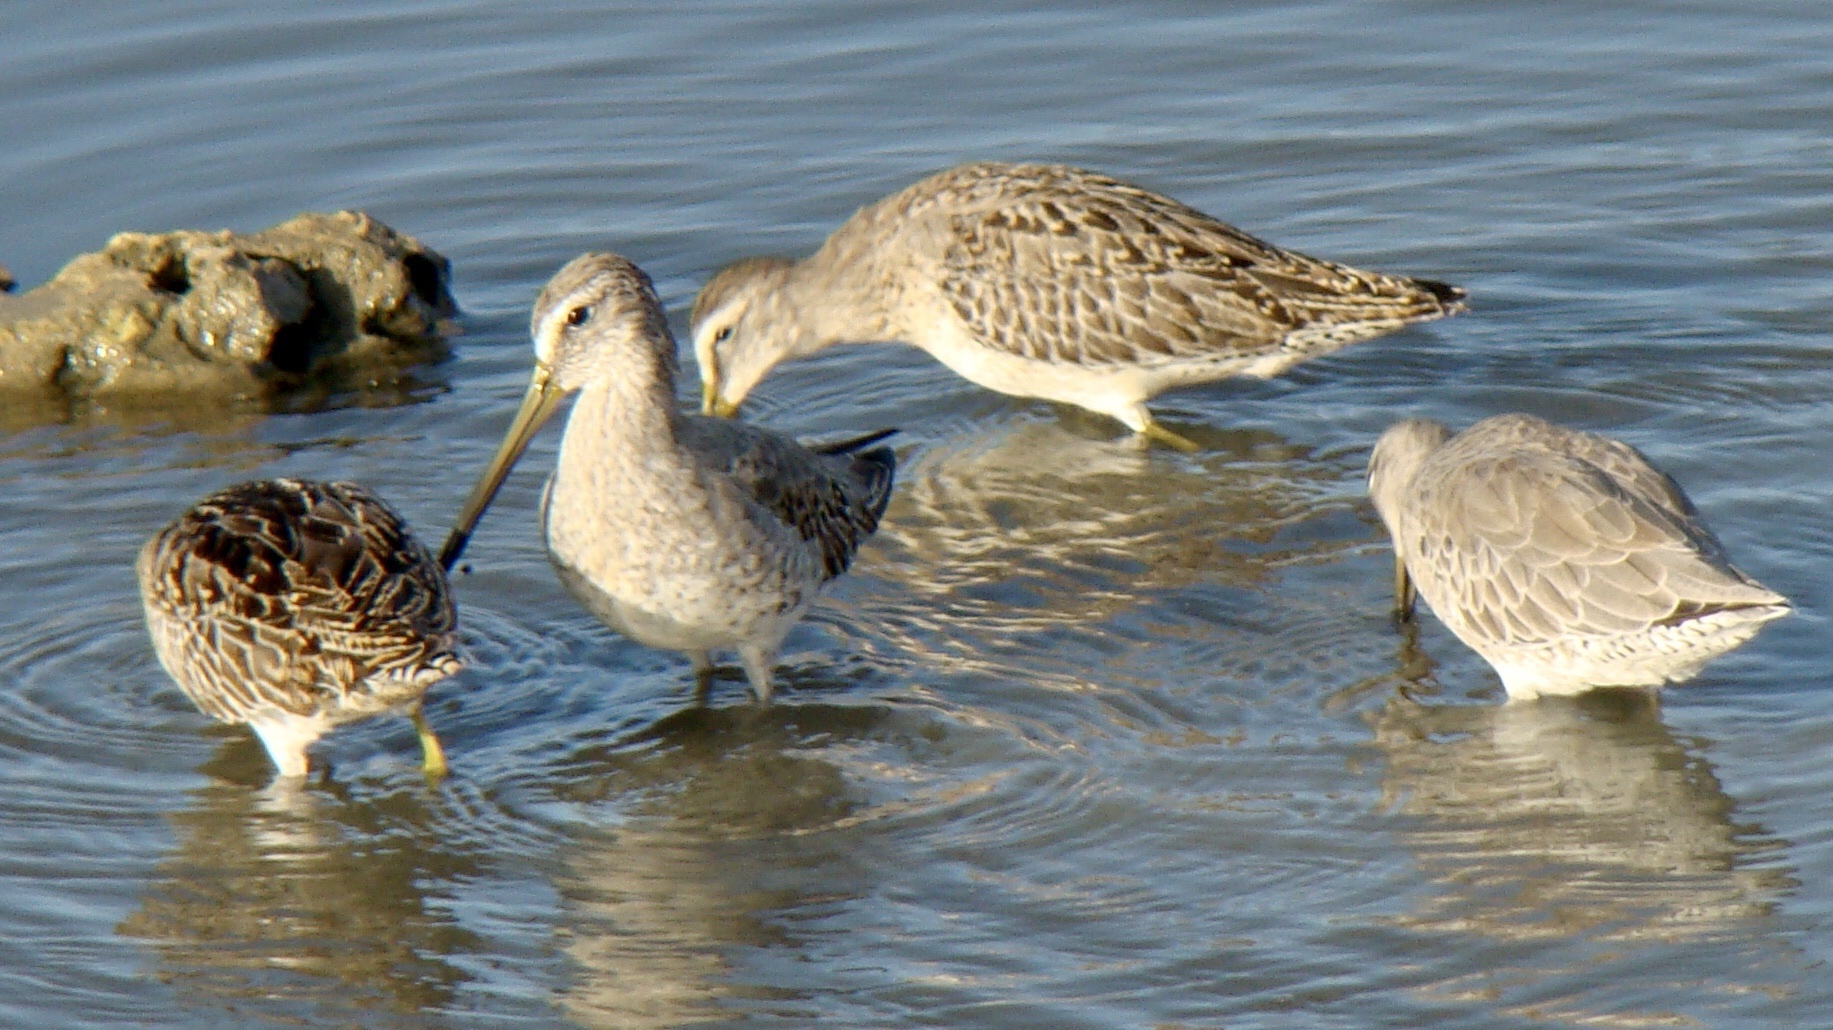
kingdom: Animalia
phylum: Chordata
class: Aves
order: Charadriiformes
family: Scolopacidae
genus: Limnodromus
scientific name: Limnodromus griseus
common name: Short-billed dowitcher
